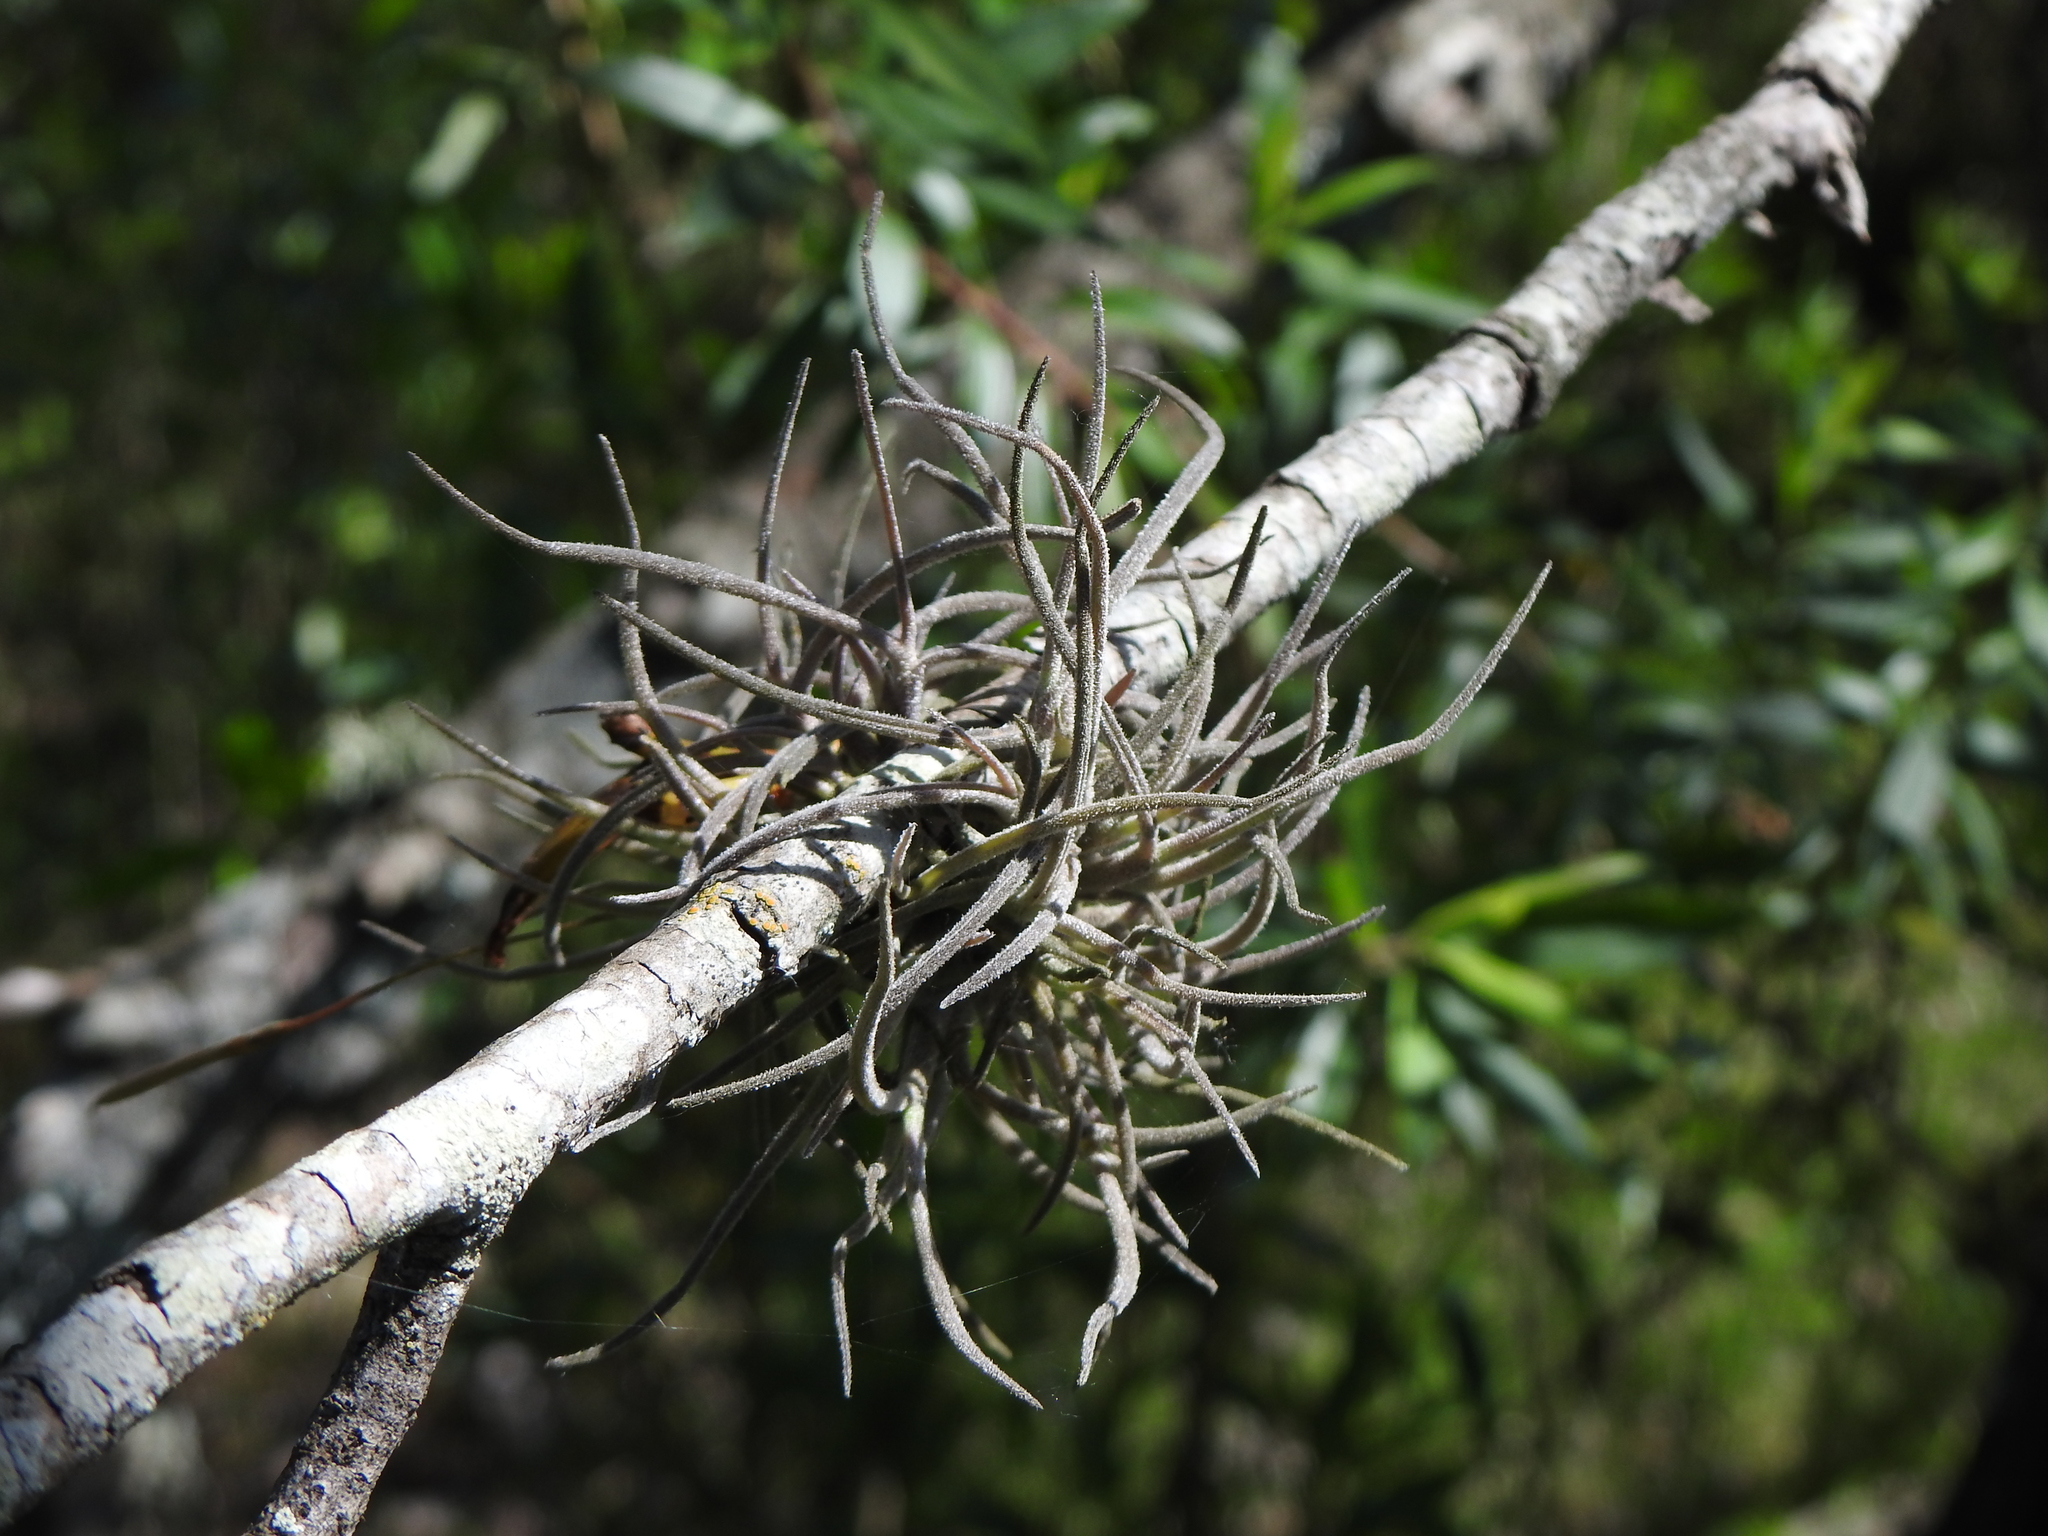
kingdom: Plantae
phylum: Tracheophyta
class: Liliopsida
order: Poales
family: Bromeliaceae
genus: Tillandsia
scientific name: Tillandsia recurvata
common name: Small ballmoss
